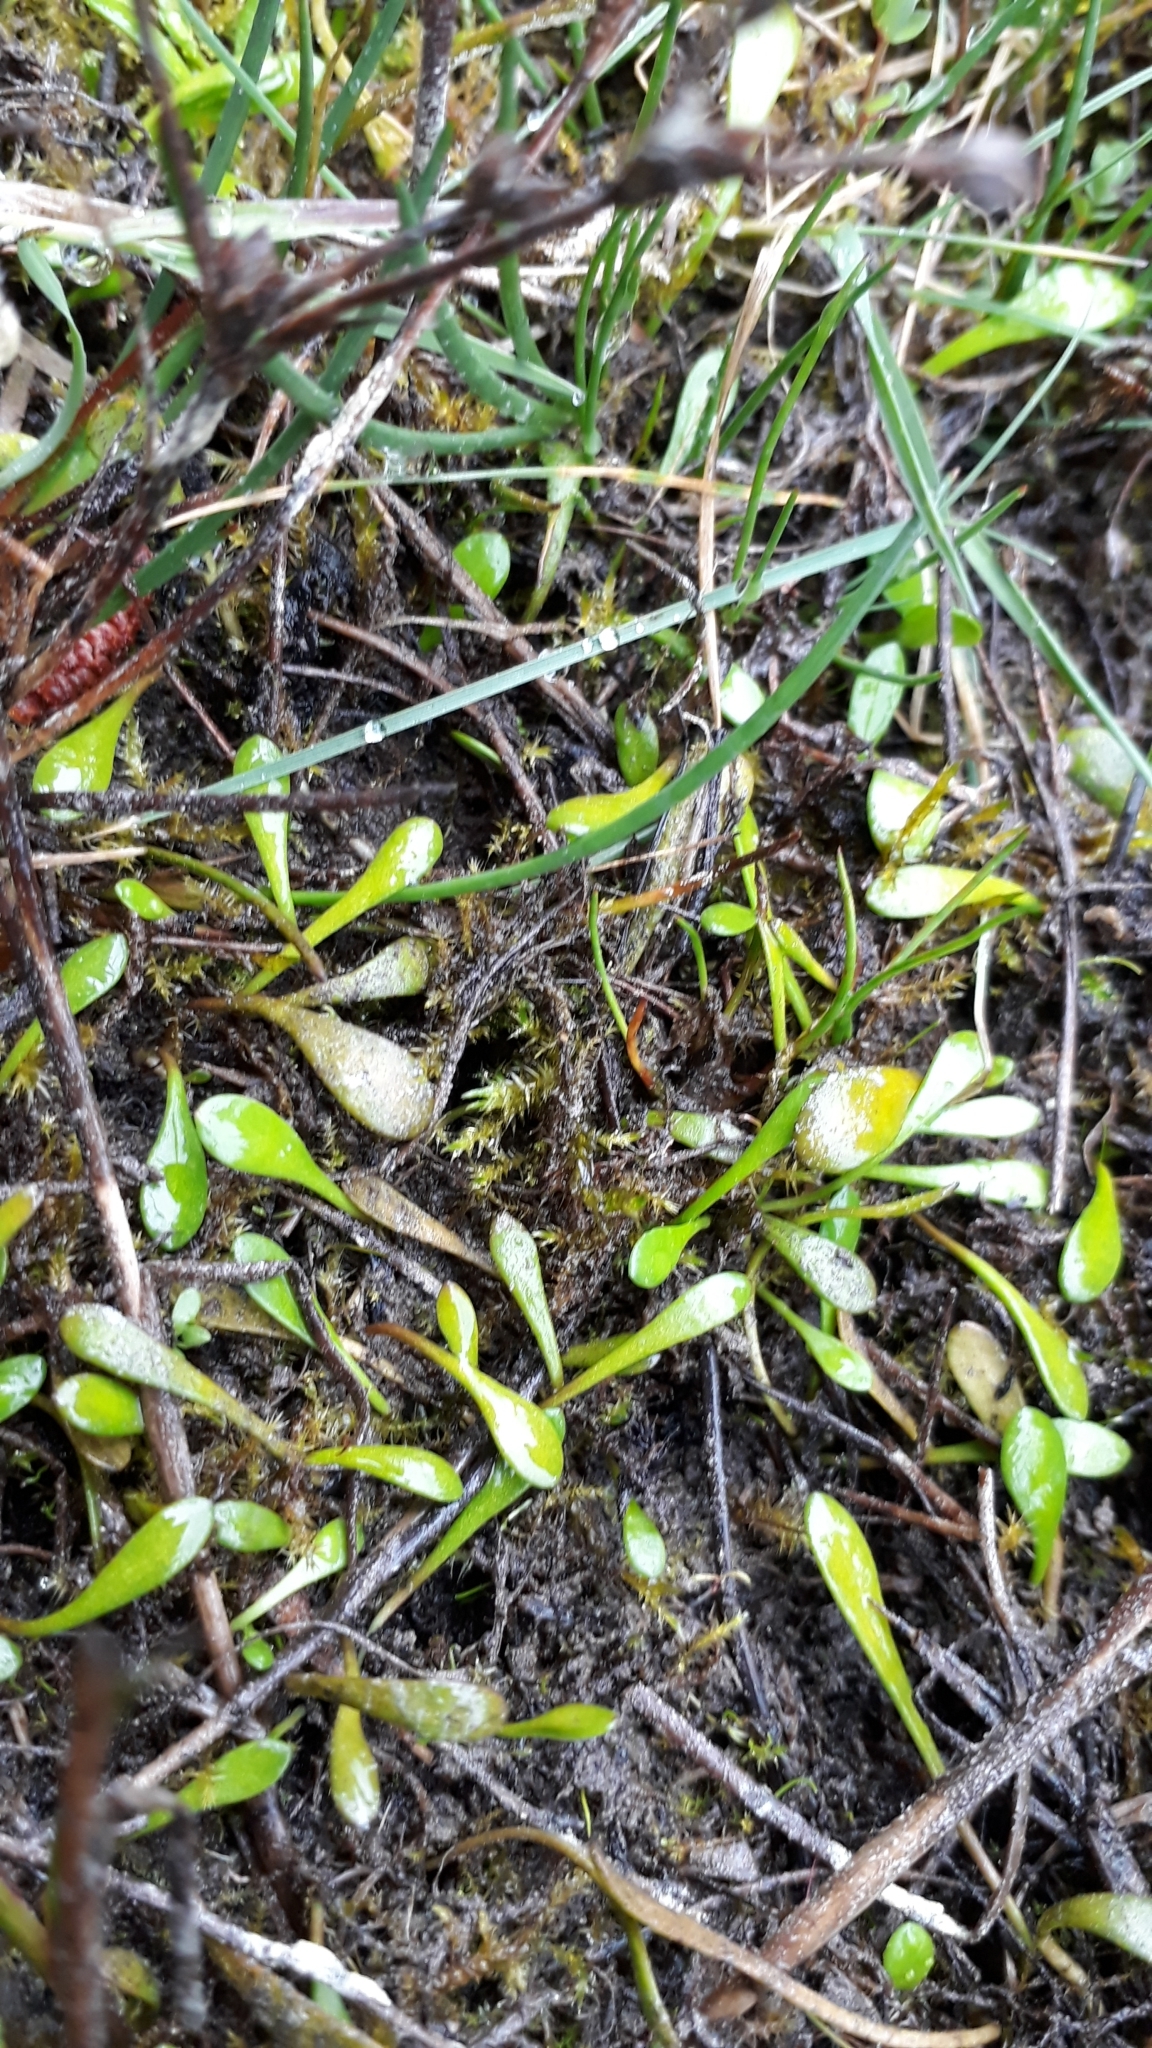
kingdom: Plantae
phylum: Tracheophyta
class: Magnoliopsida
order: Asterales
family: Goodeniaceae
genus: Goodenia
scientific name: Goodenia radicans
